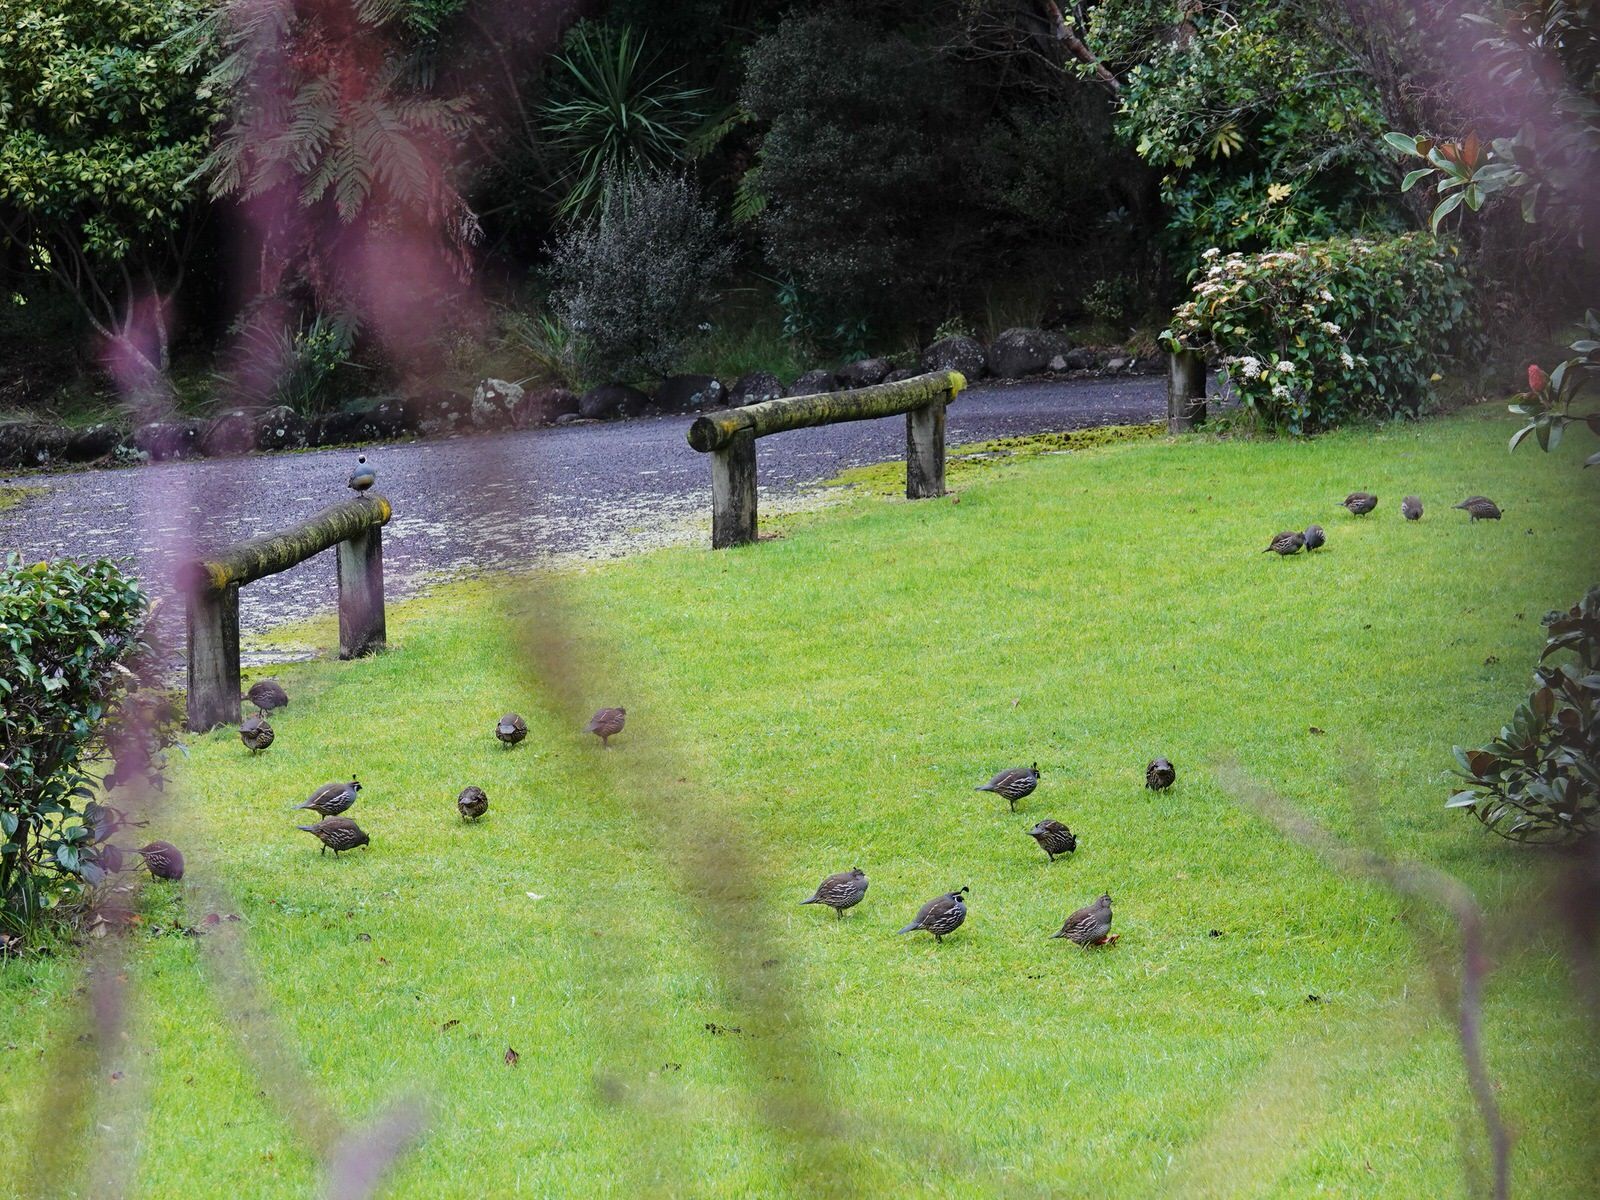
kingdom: Animalia
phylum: Chordata
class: Aves
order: Galliformes
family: Odontophoridae
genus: Callipepla
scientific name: Callipepla californica
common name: California quail
